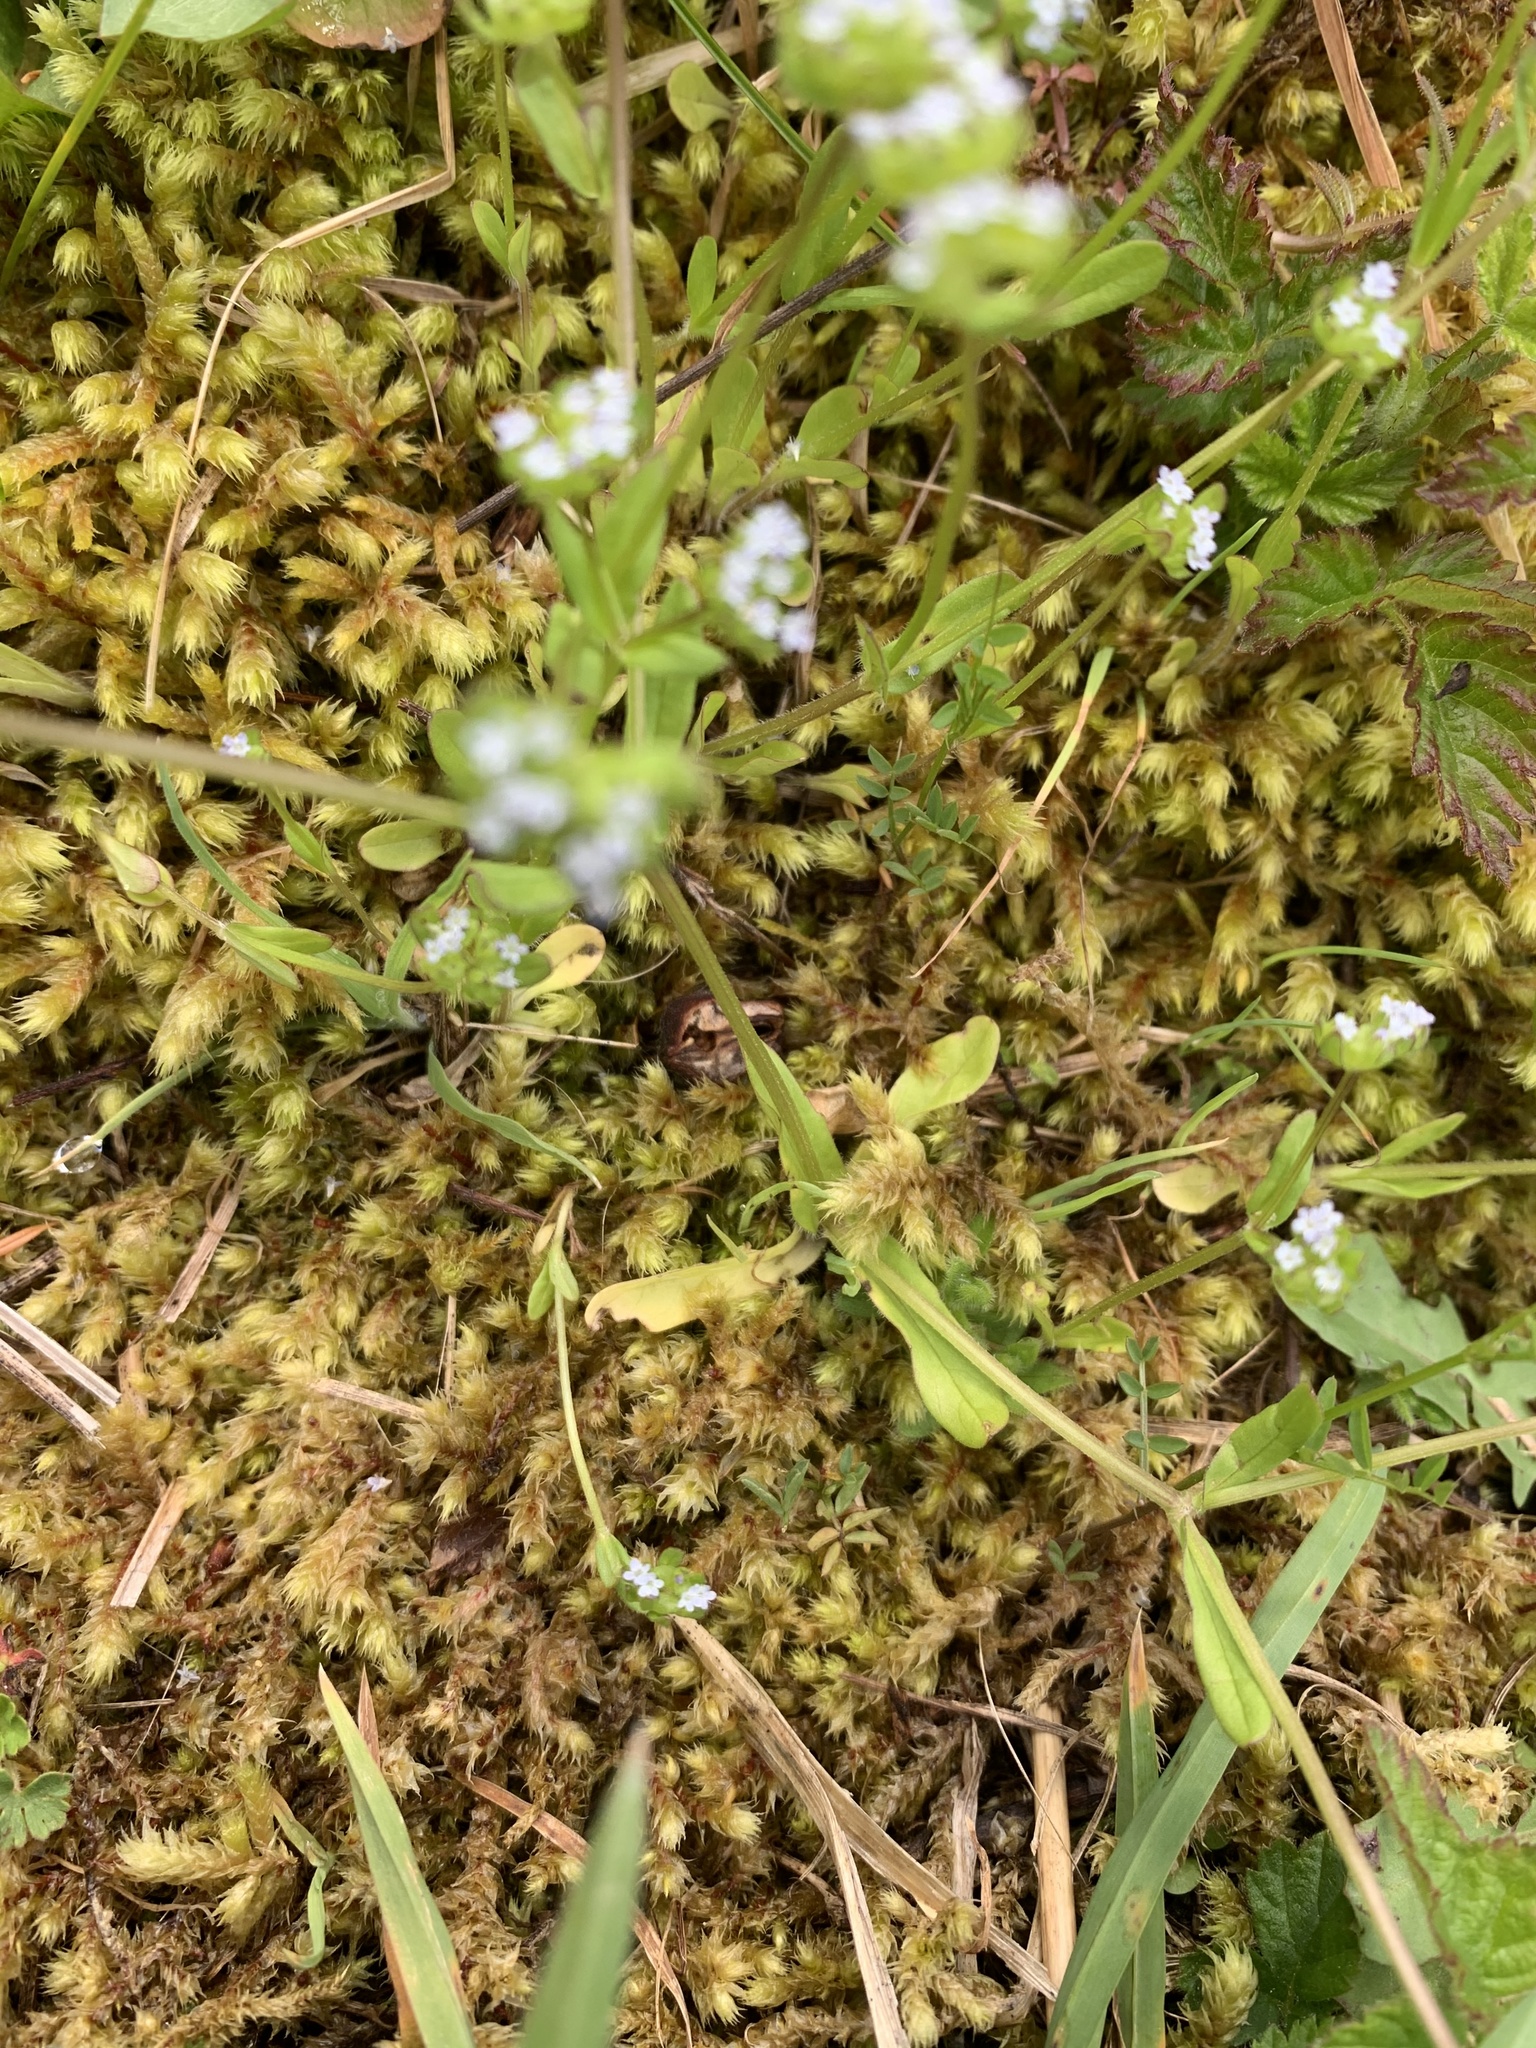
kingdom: Plantae
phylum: Tracheophyta
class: Magnoliopsida
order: Dipsacales
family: Caprifoliaceae
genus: Valerianella
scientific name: Valerianella locusta
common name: Common cornsalad
